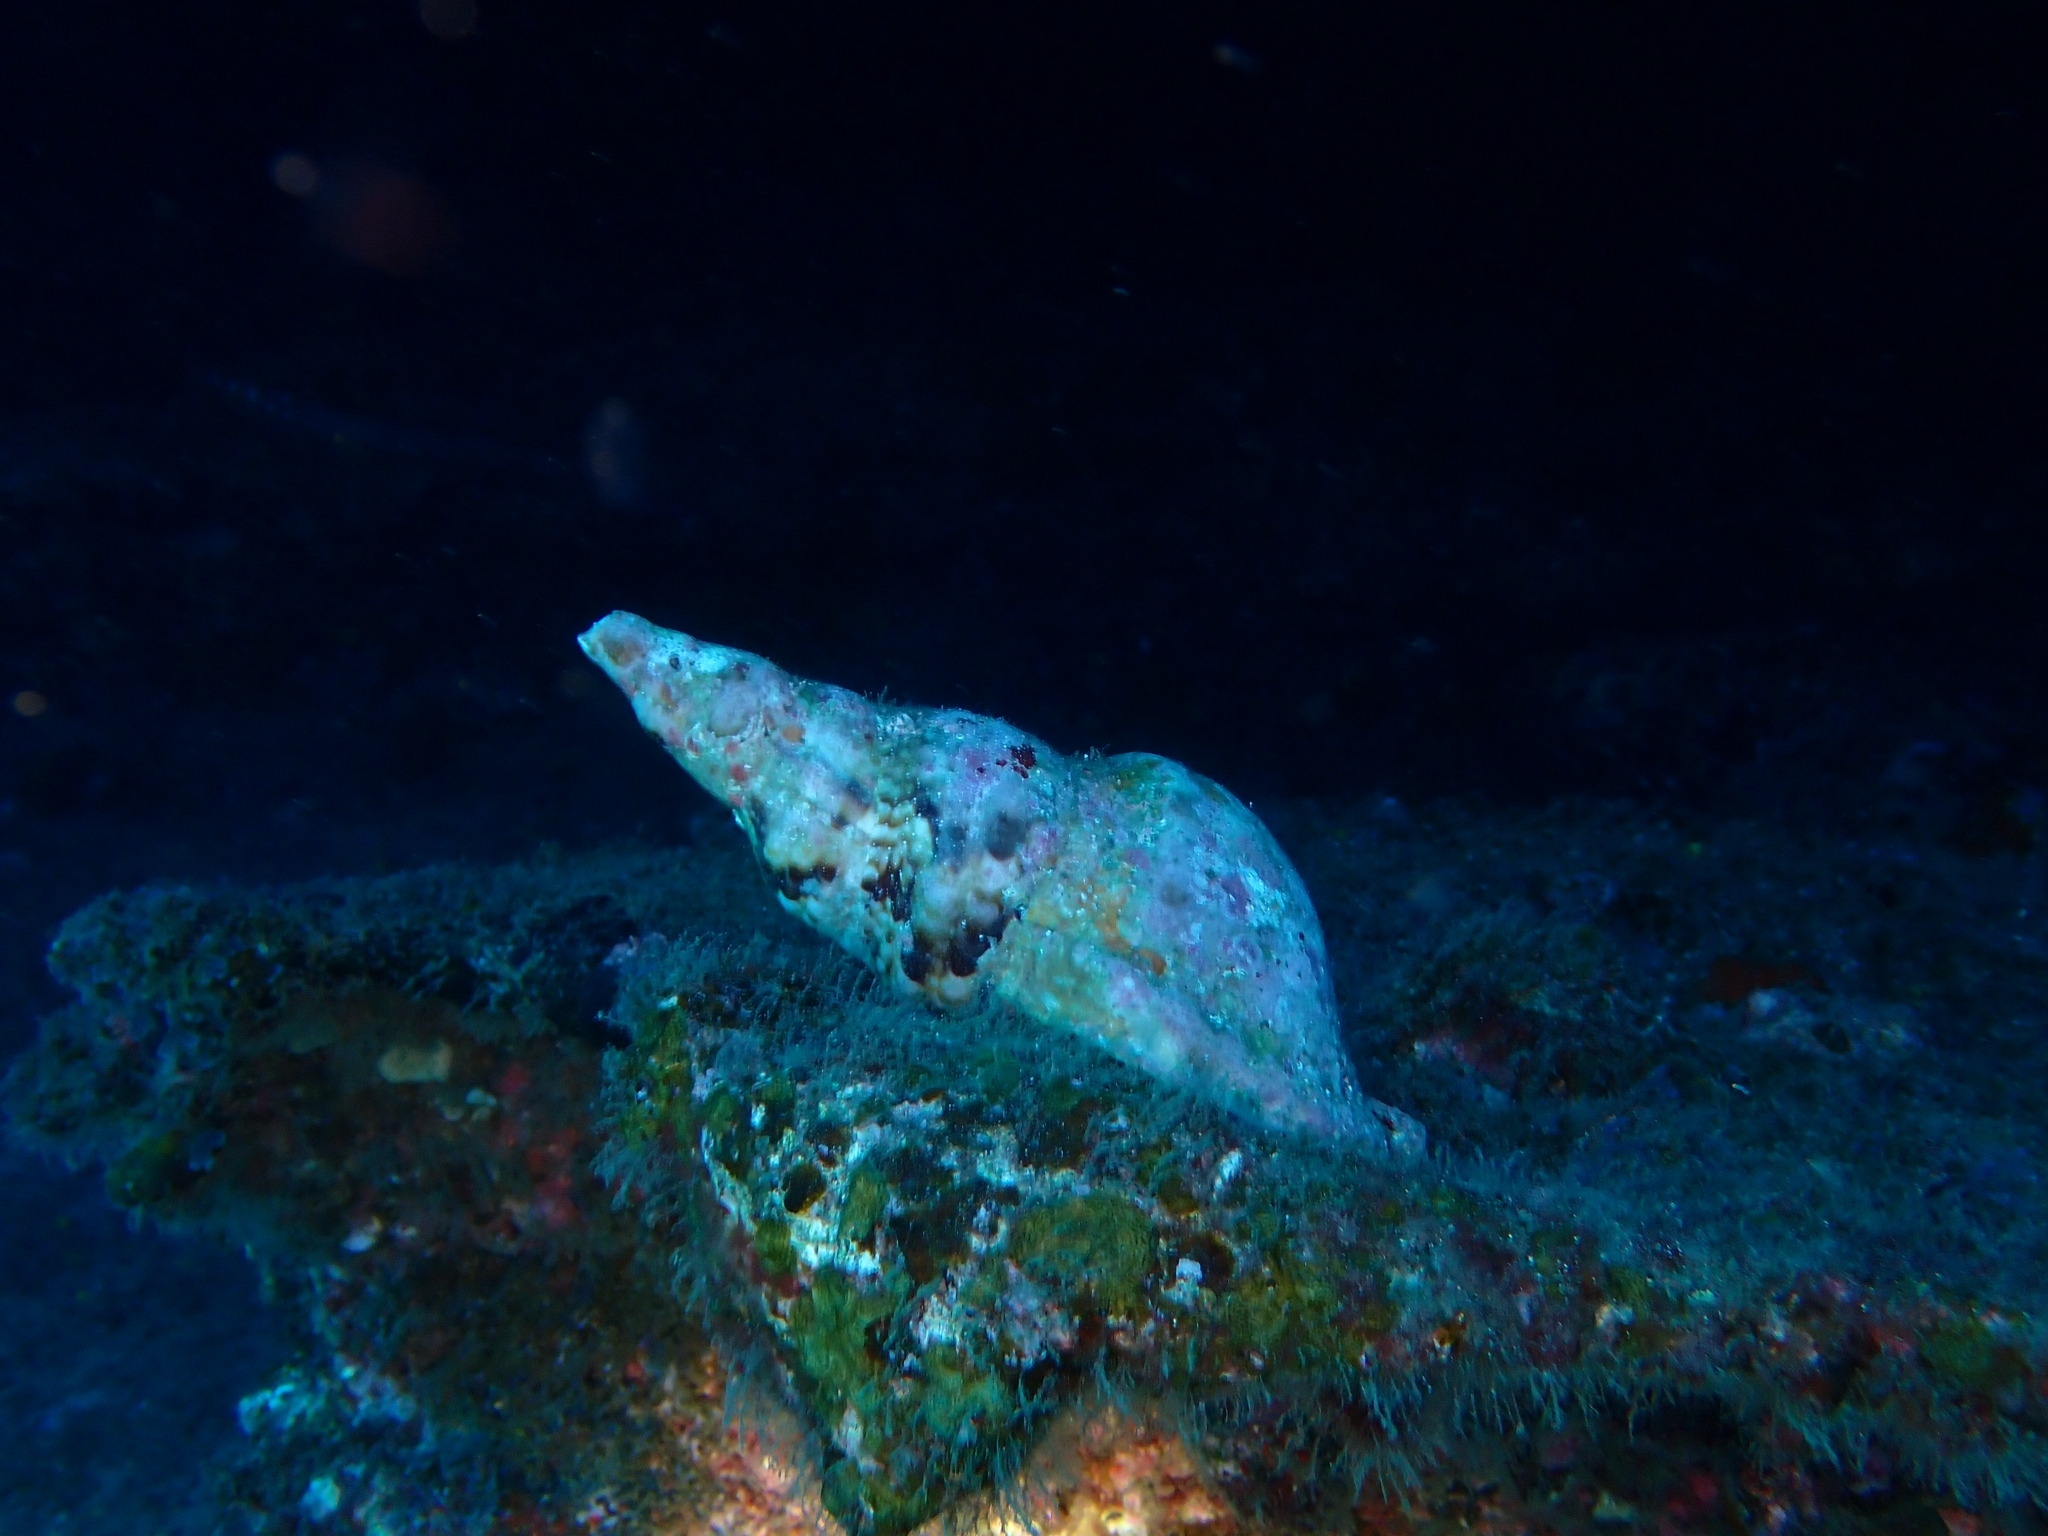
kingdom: Animalia
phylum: Mollusca
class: Gastropoda
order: Littorinimorpha
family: Charoniidae
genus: Charonia
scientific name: Charonia variegata
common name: Atlantic triton
